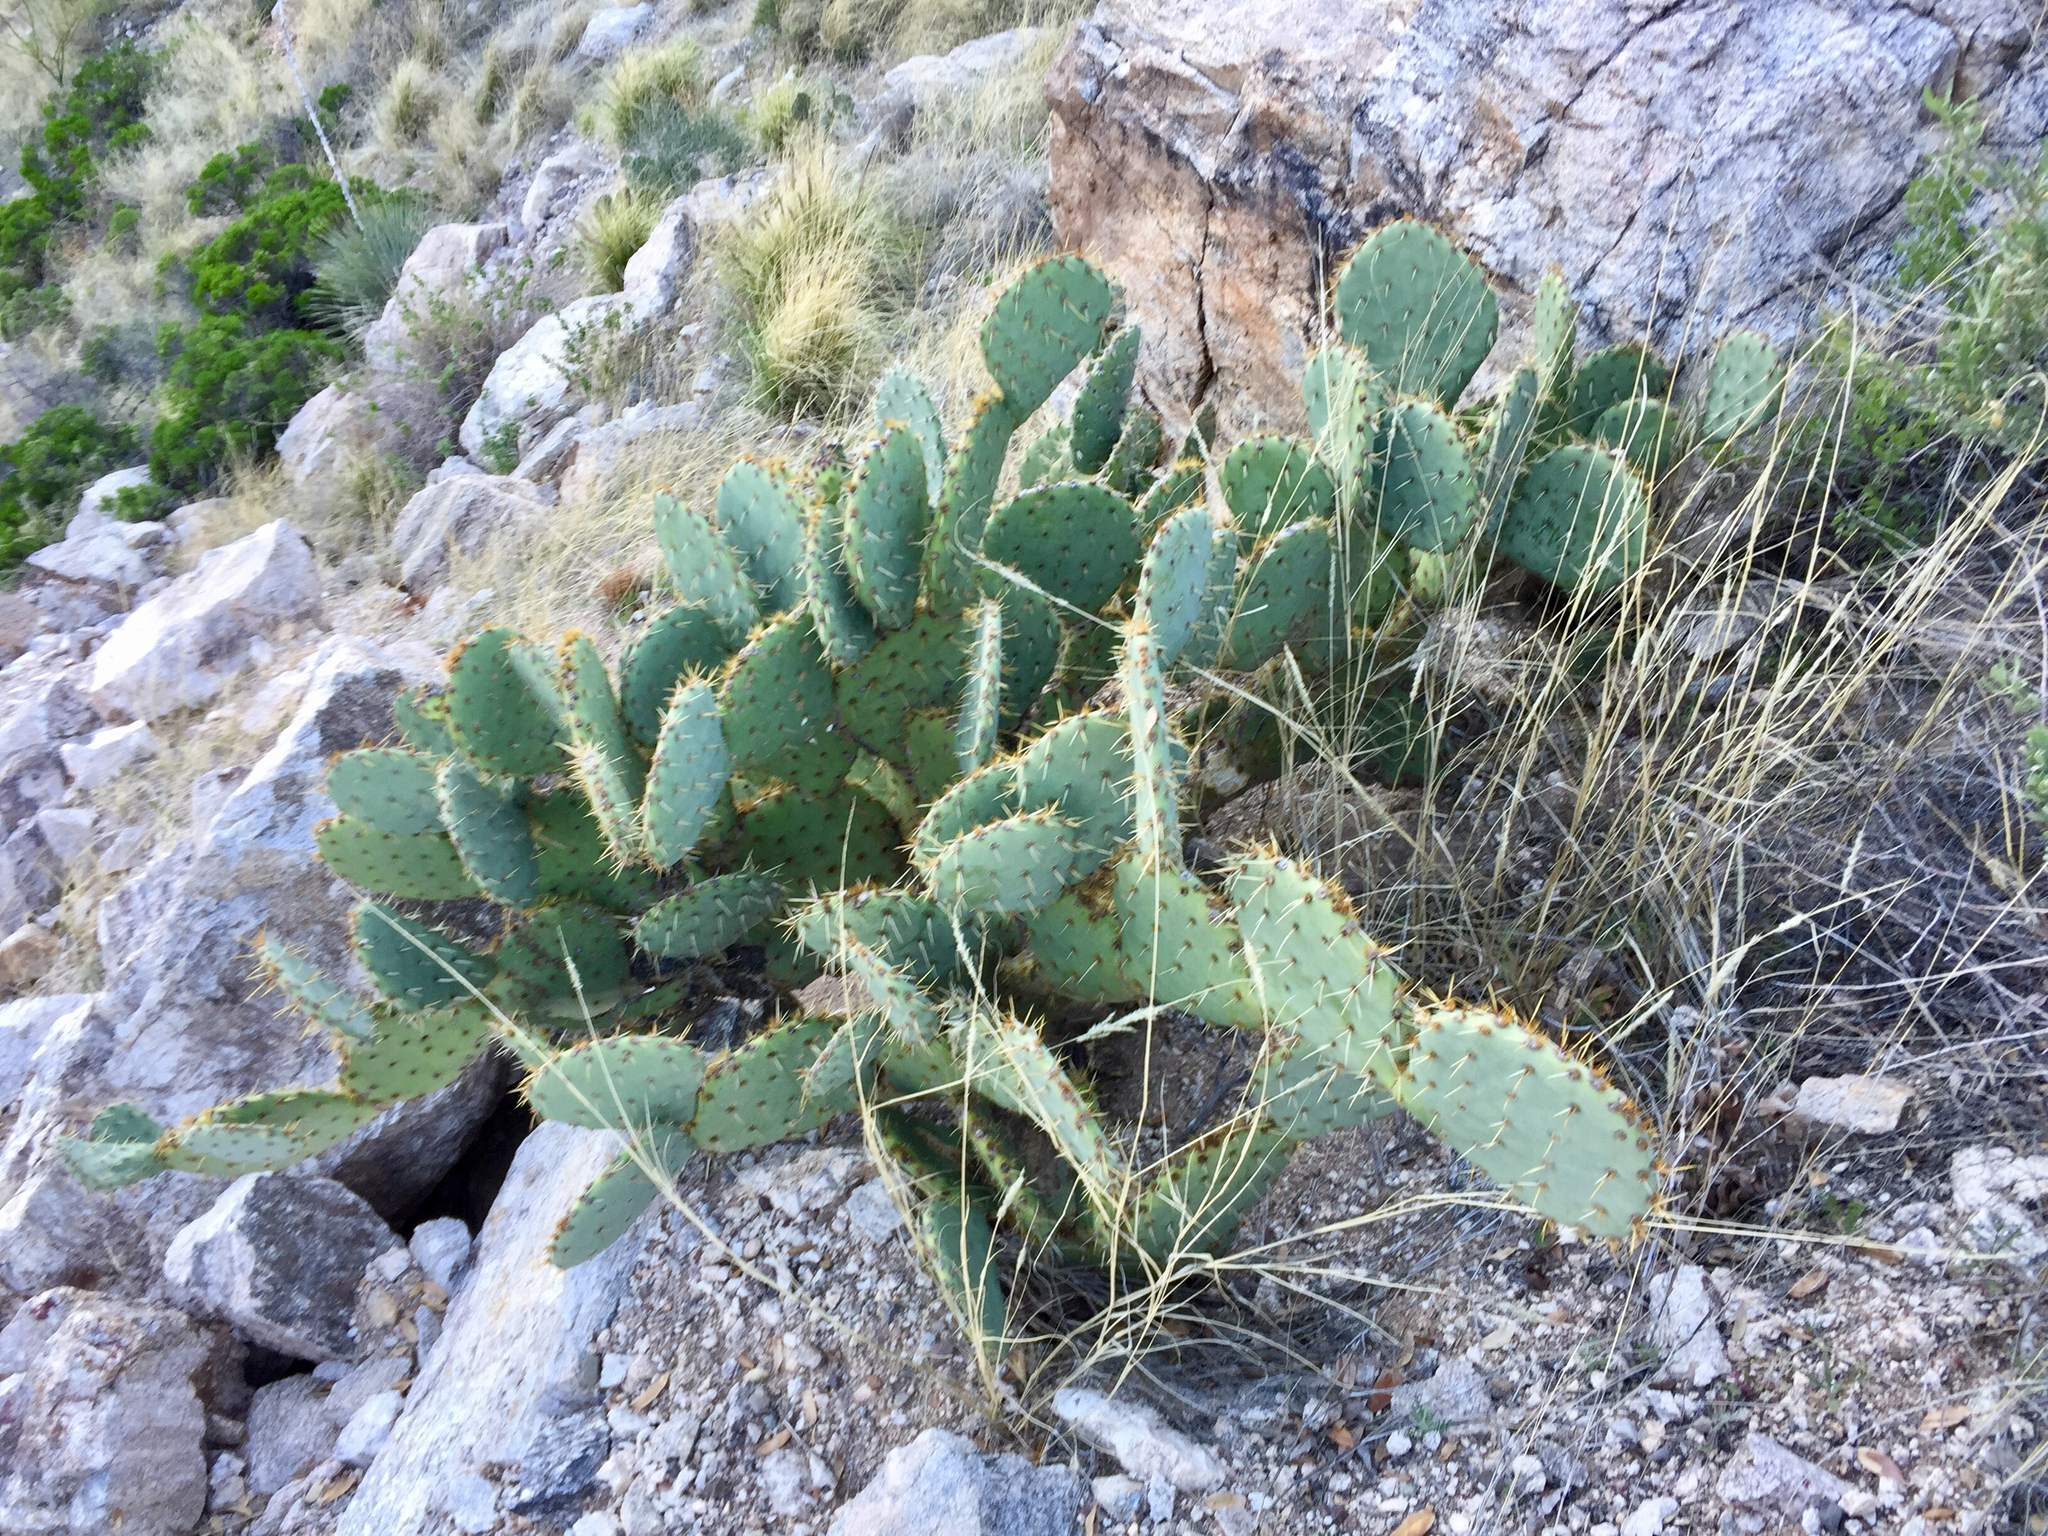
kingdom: Plantae
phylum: Tracheophyta
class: Magnoliopsida
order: Caryophyllales
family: Cactaceae
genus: Opuntia
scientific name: Opuntia engelmannii
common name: Cactus-apple
